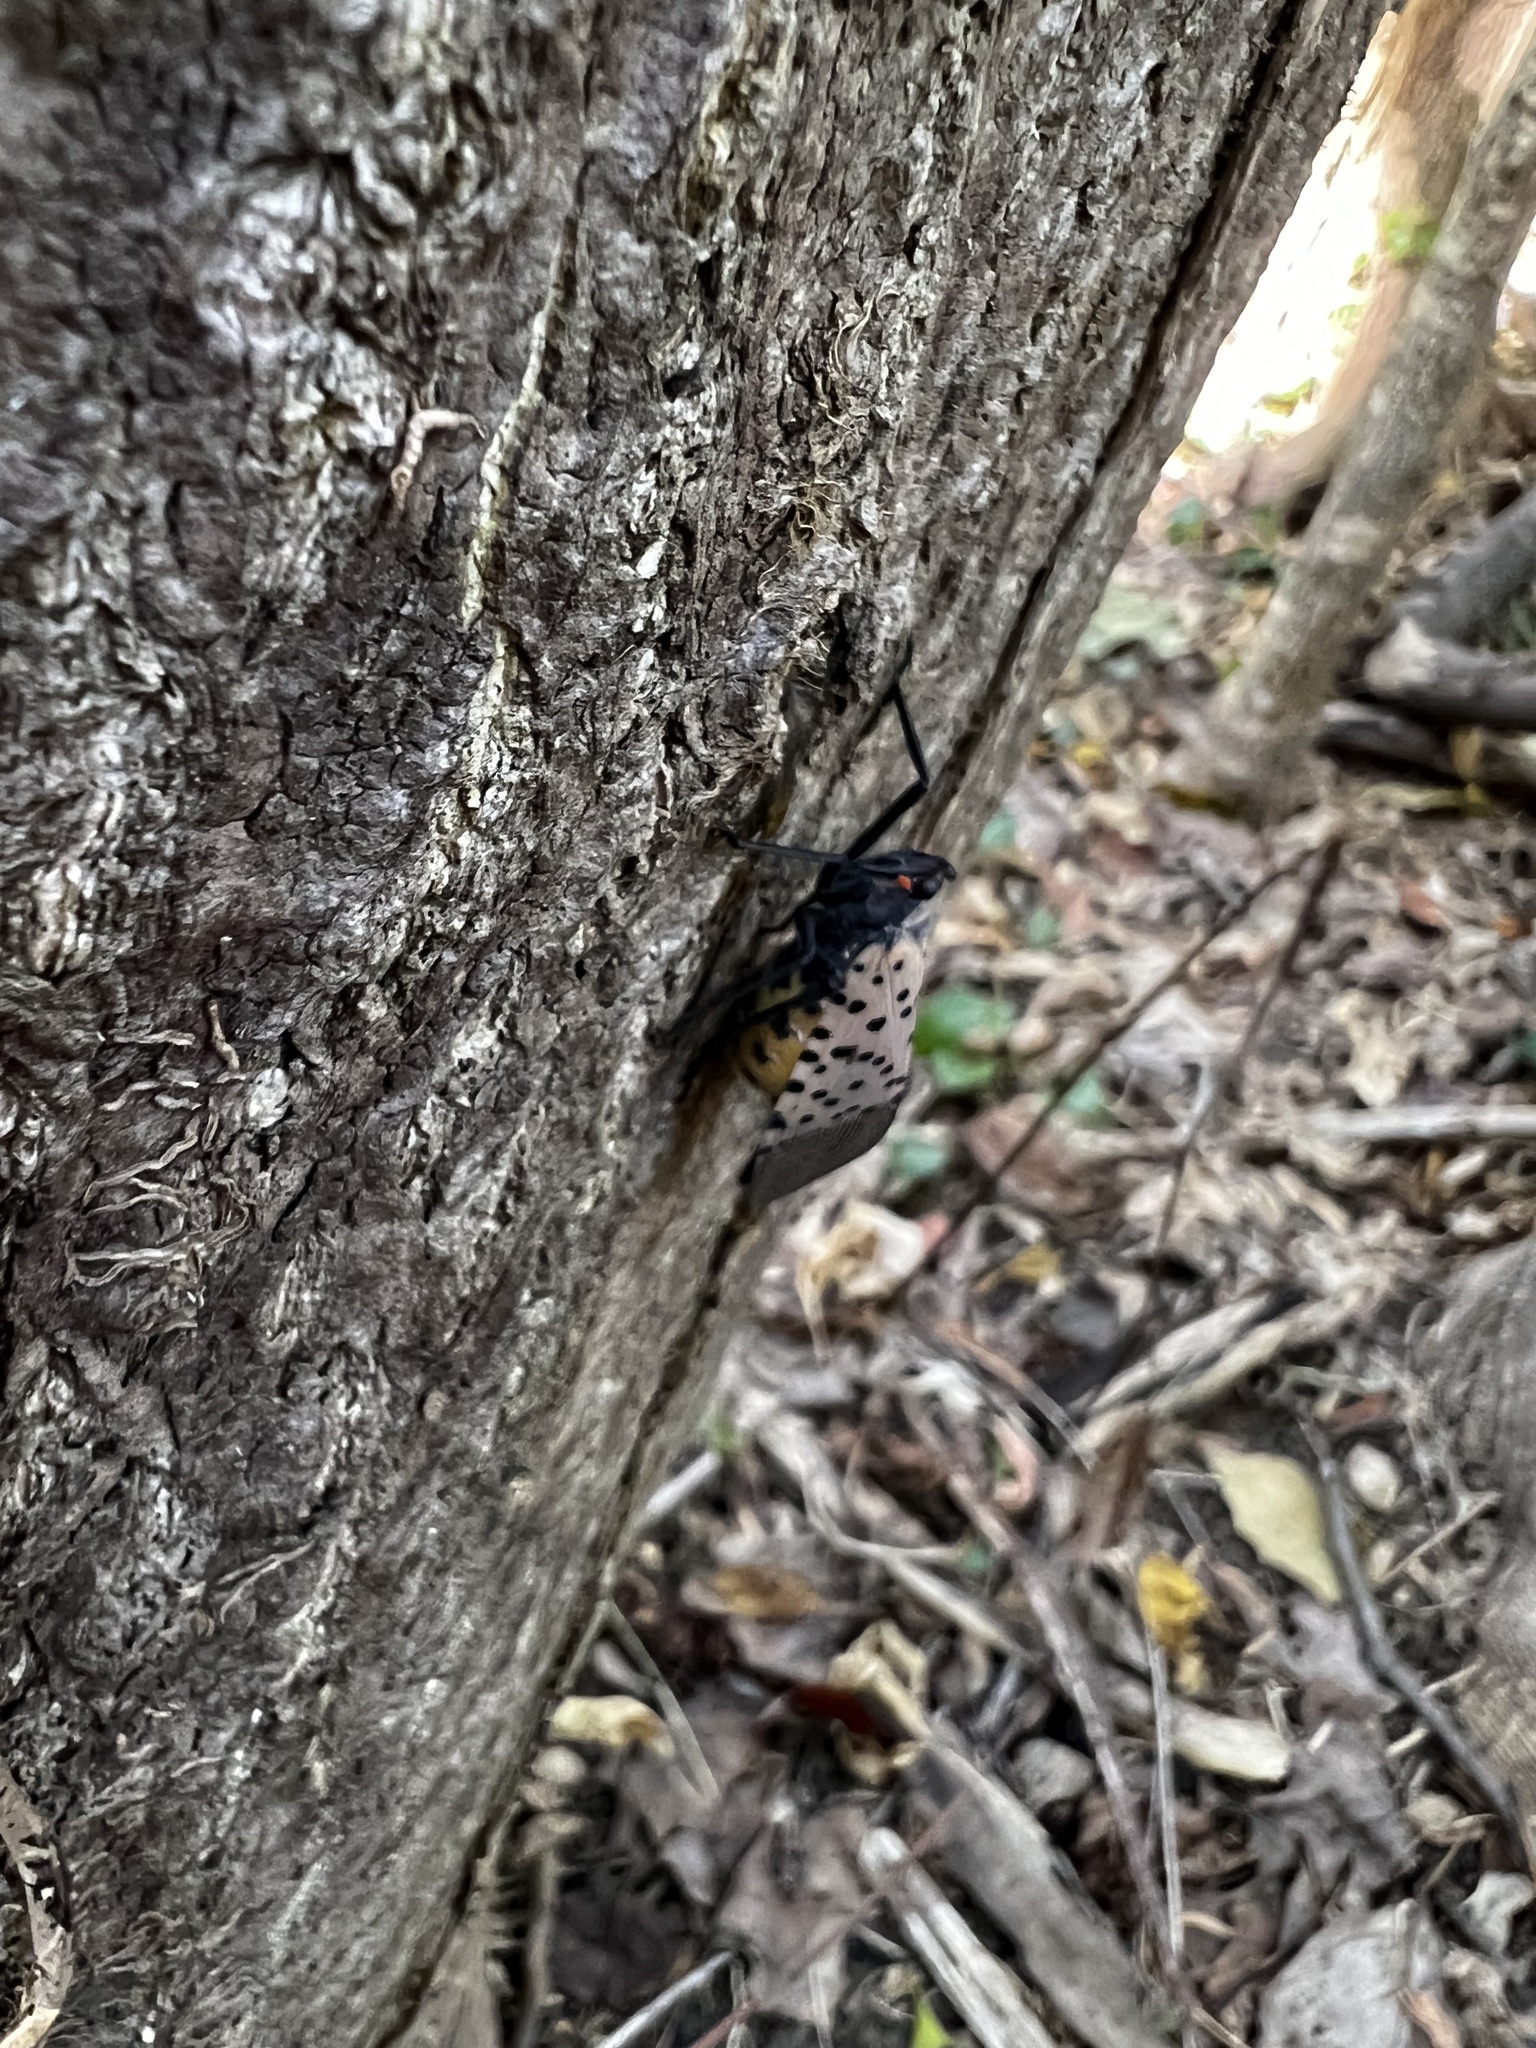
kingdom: Animalia
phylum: Arthropoda
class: Insecta
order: Hemiptera
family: Fulgoridae
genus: Lycorma
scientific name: Lycorma delicatula
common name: Spotted lanternfly
